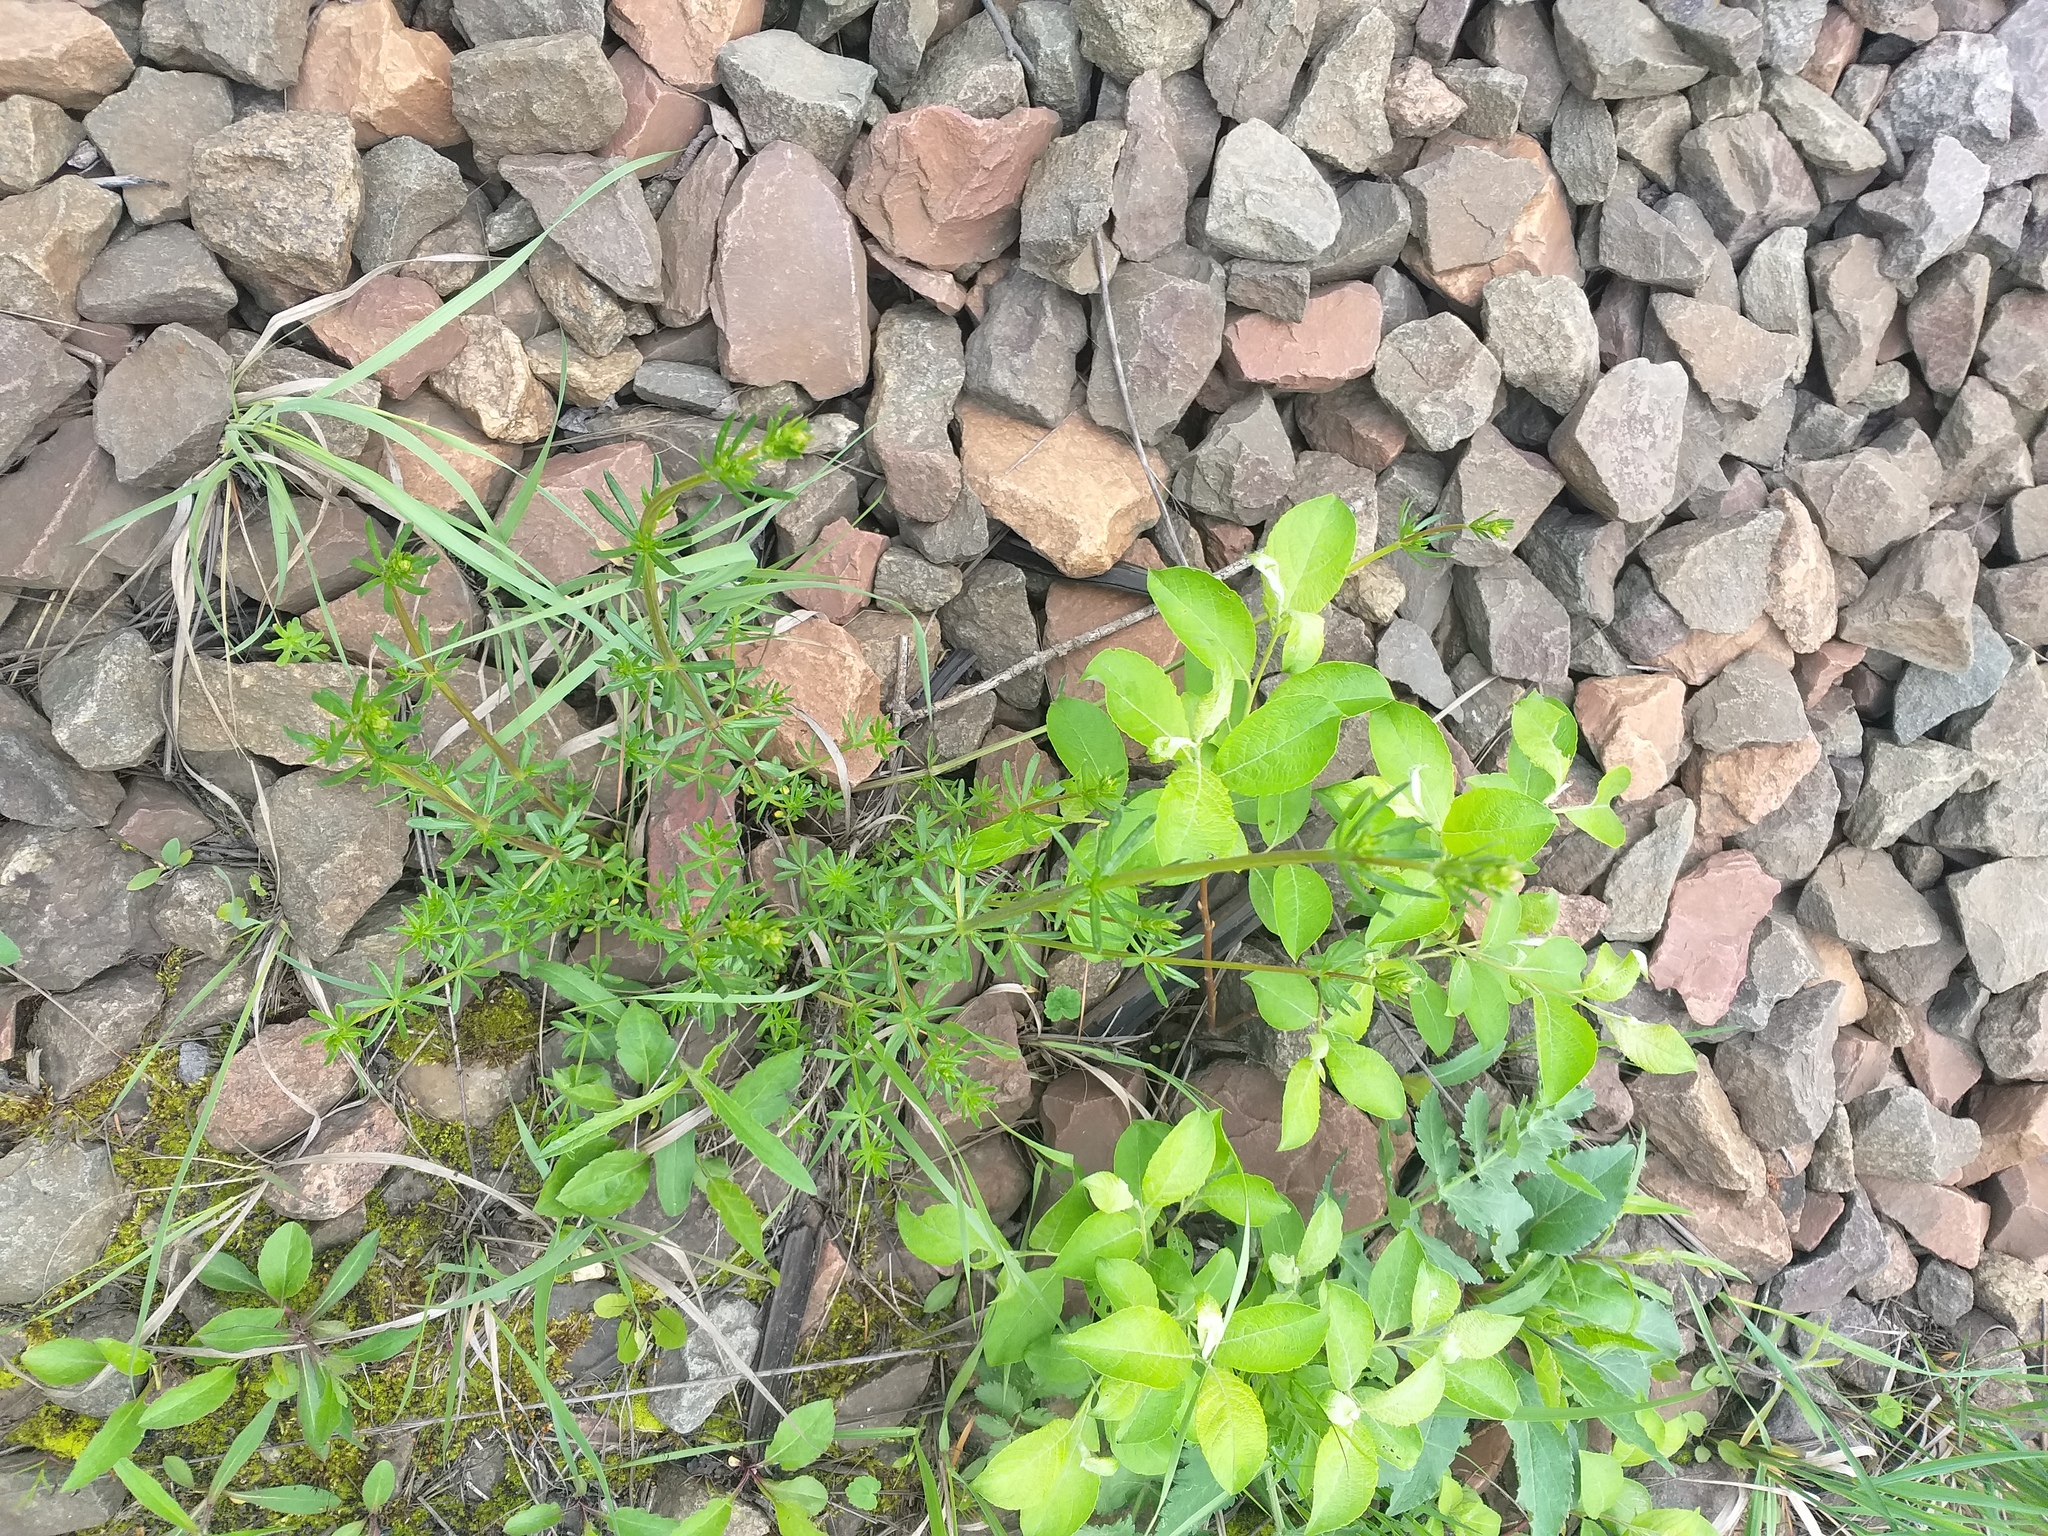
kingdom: Plantae
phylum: Tracheophyta
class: Magnoliopsida
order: Gentianales
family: Rubiaceae
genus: Galium
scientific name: Galium mollugo
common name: Hedge bedstraw
